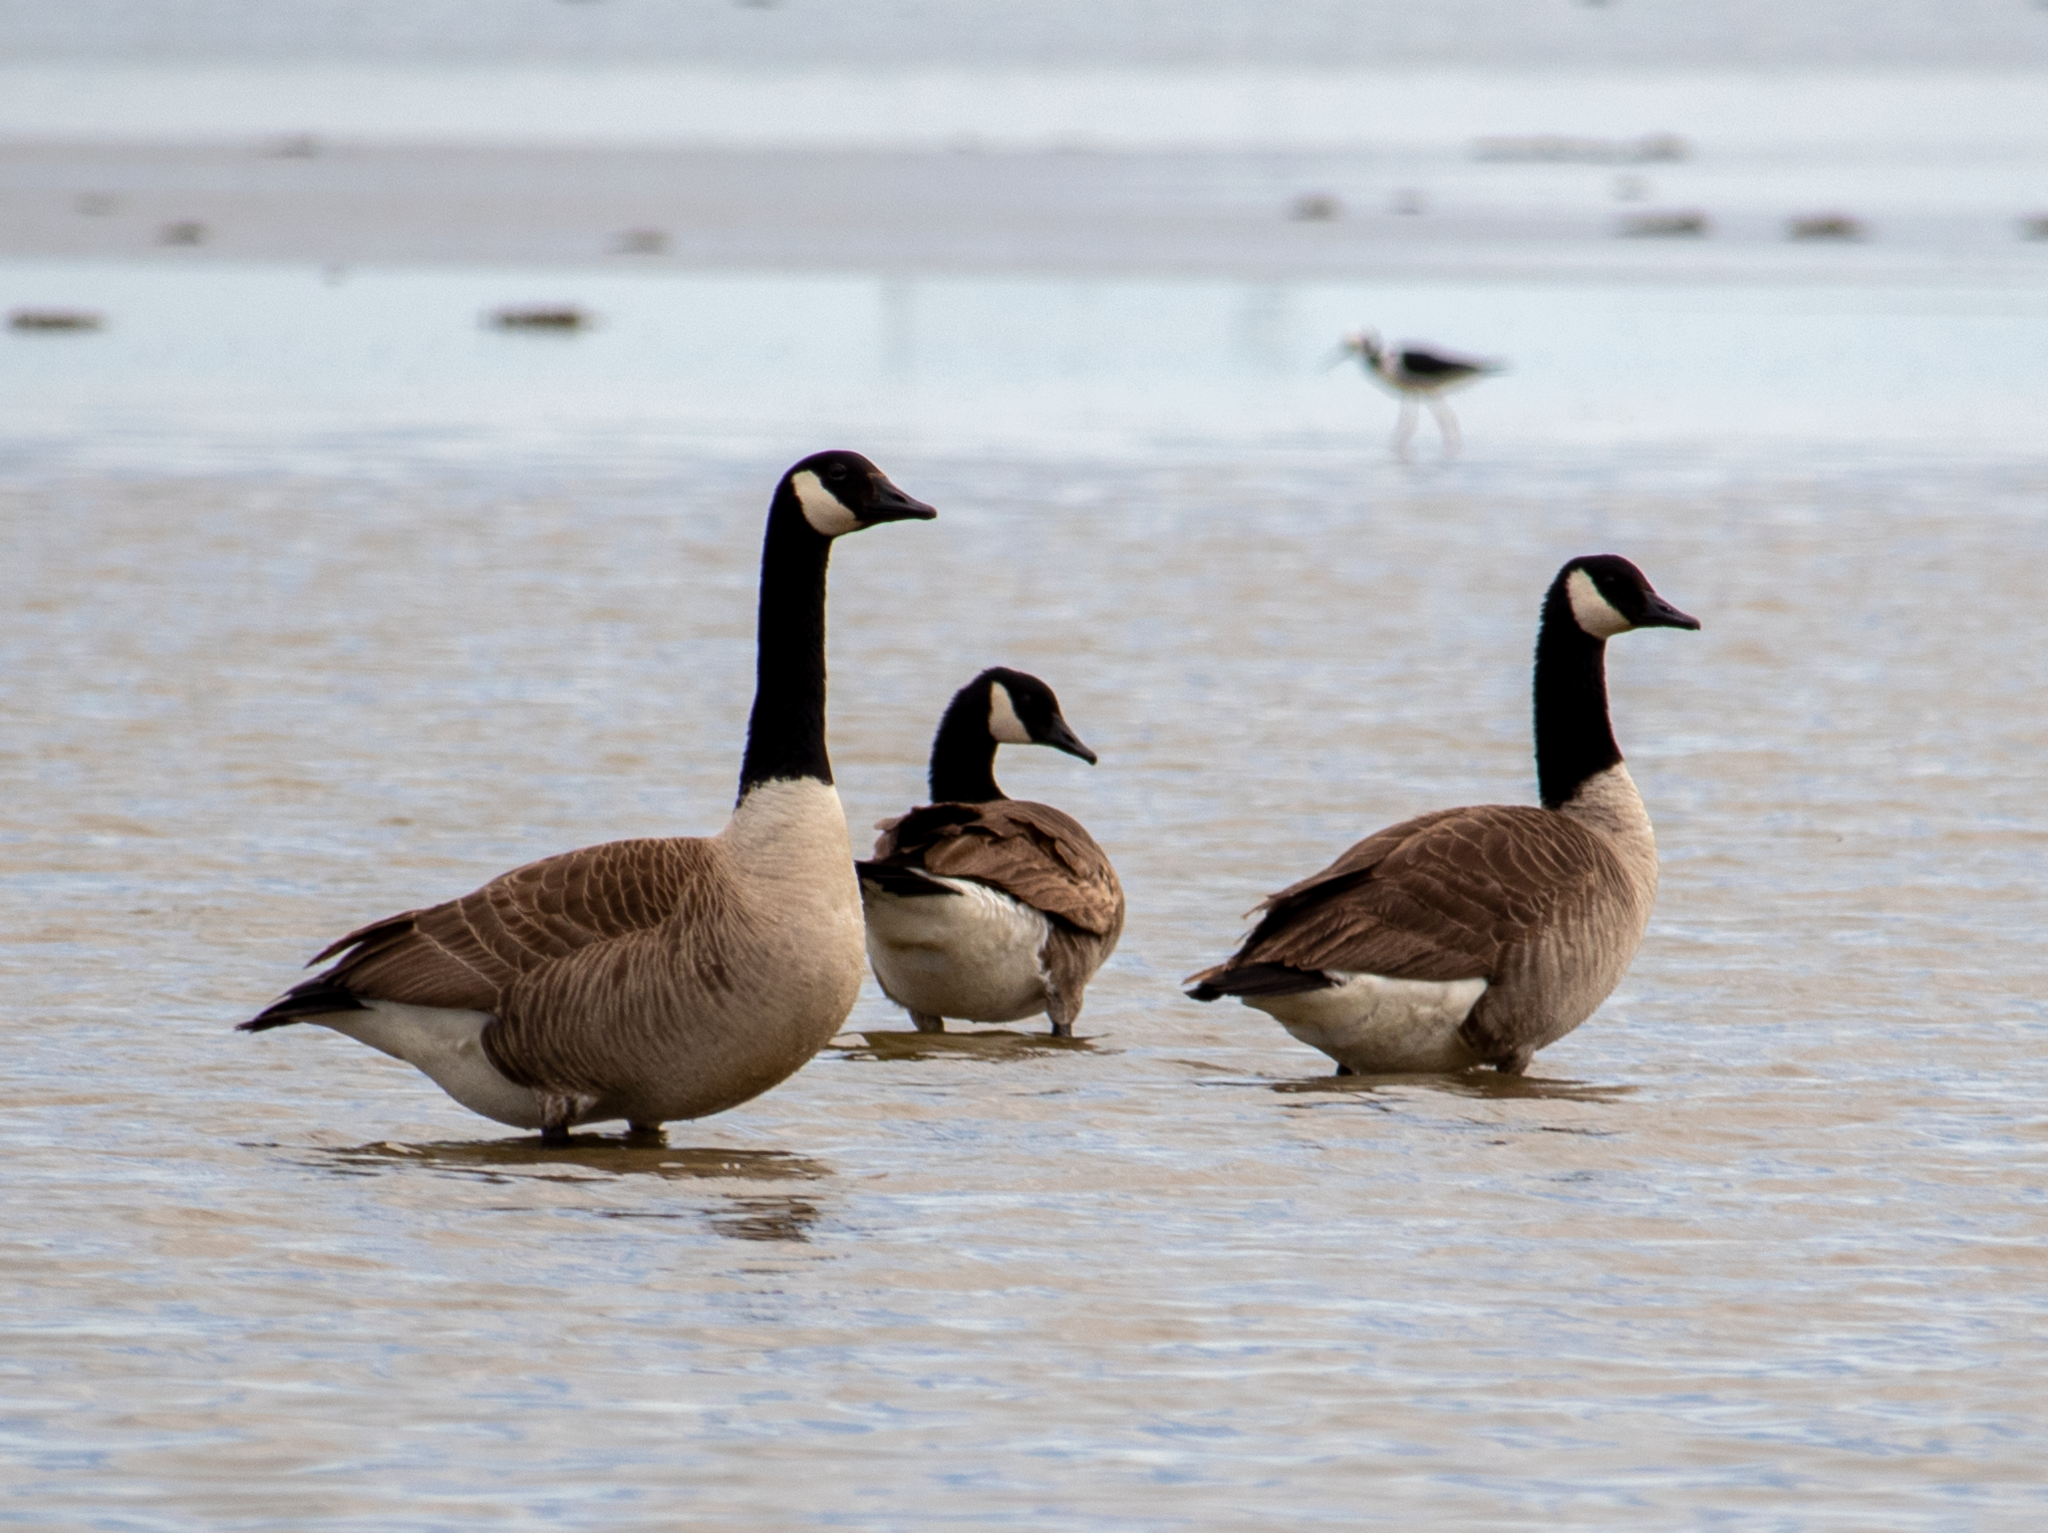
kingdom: Animalia
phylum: Chordata
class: Aves
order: Anseriformes
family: Anatidae
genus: Branta
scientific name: Branta canadensis
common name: Canada goose
